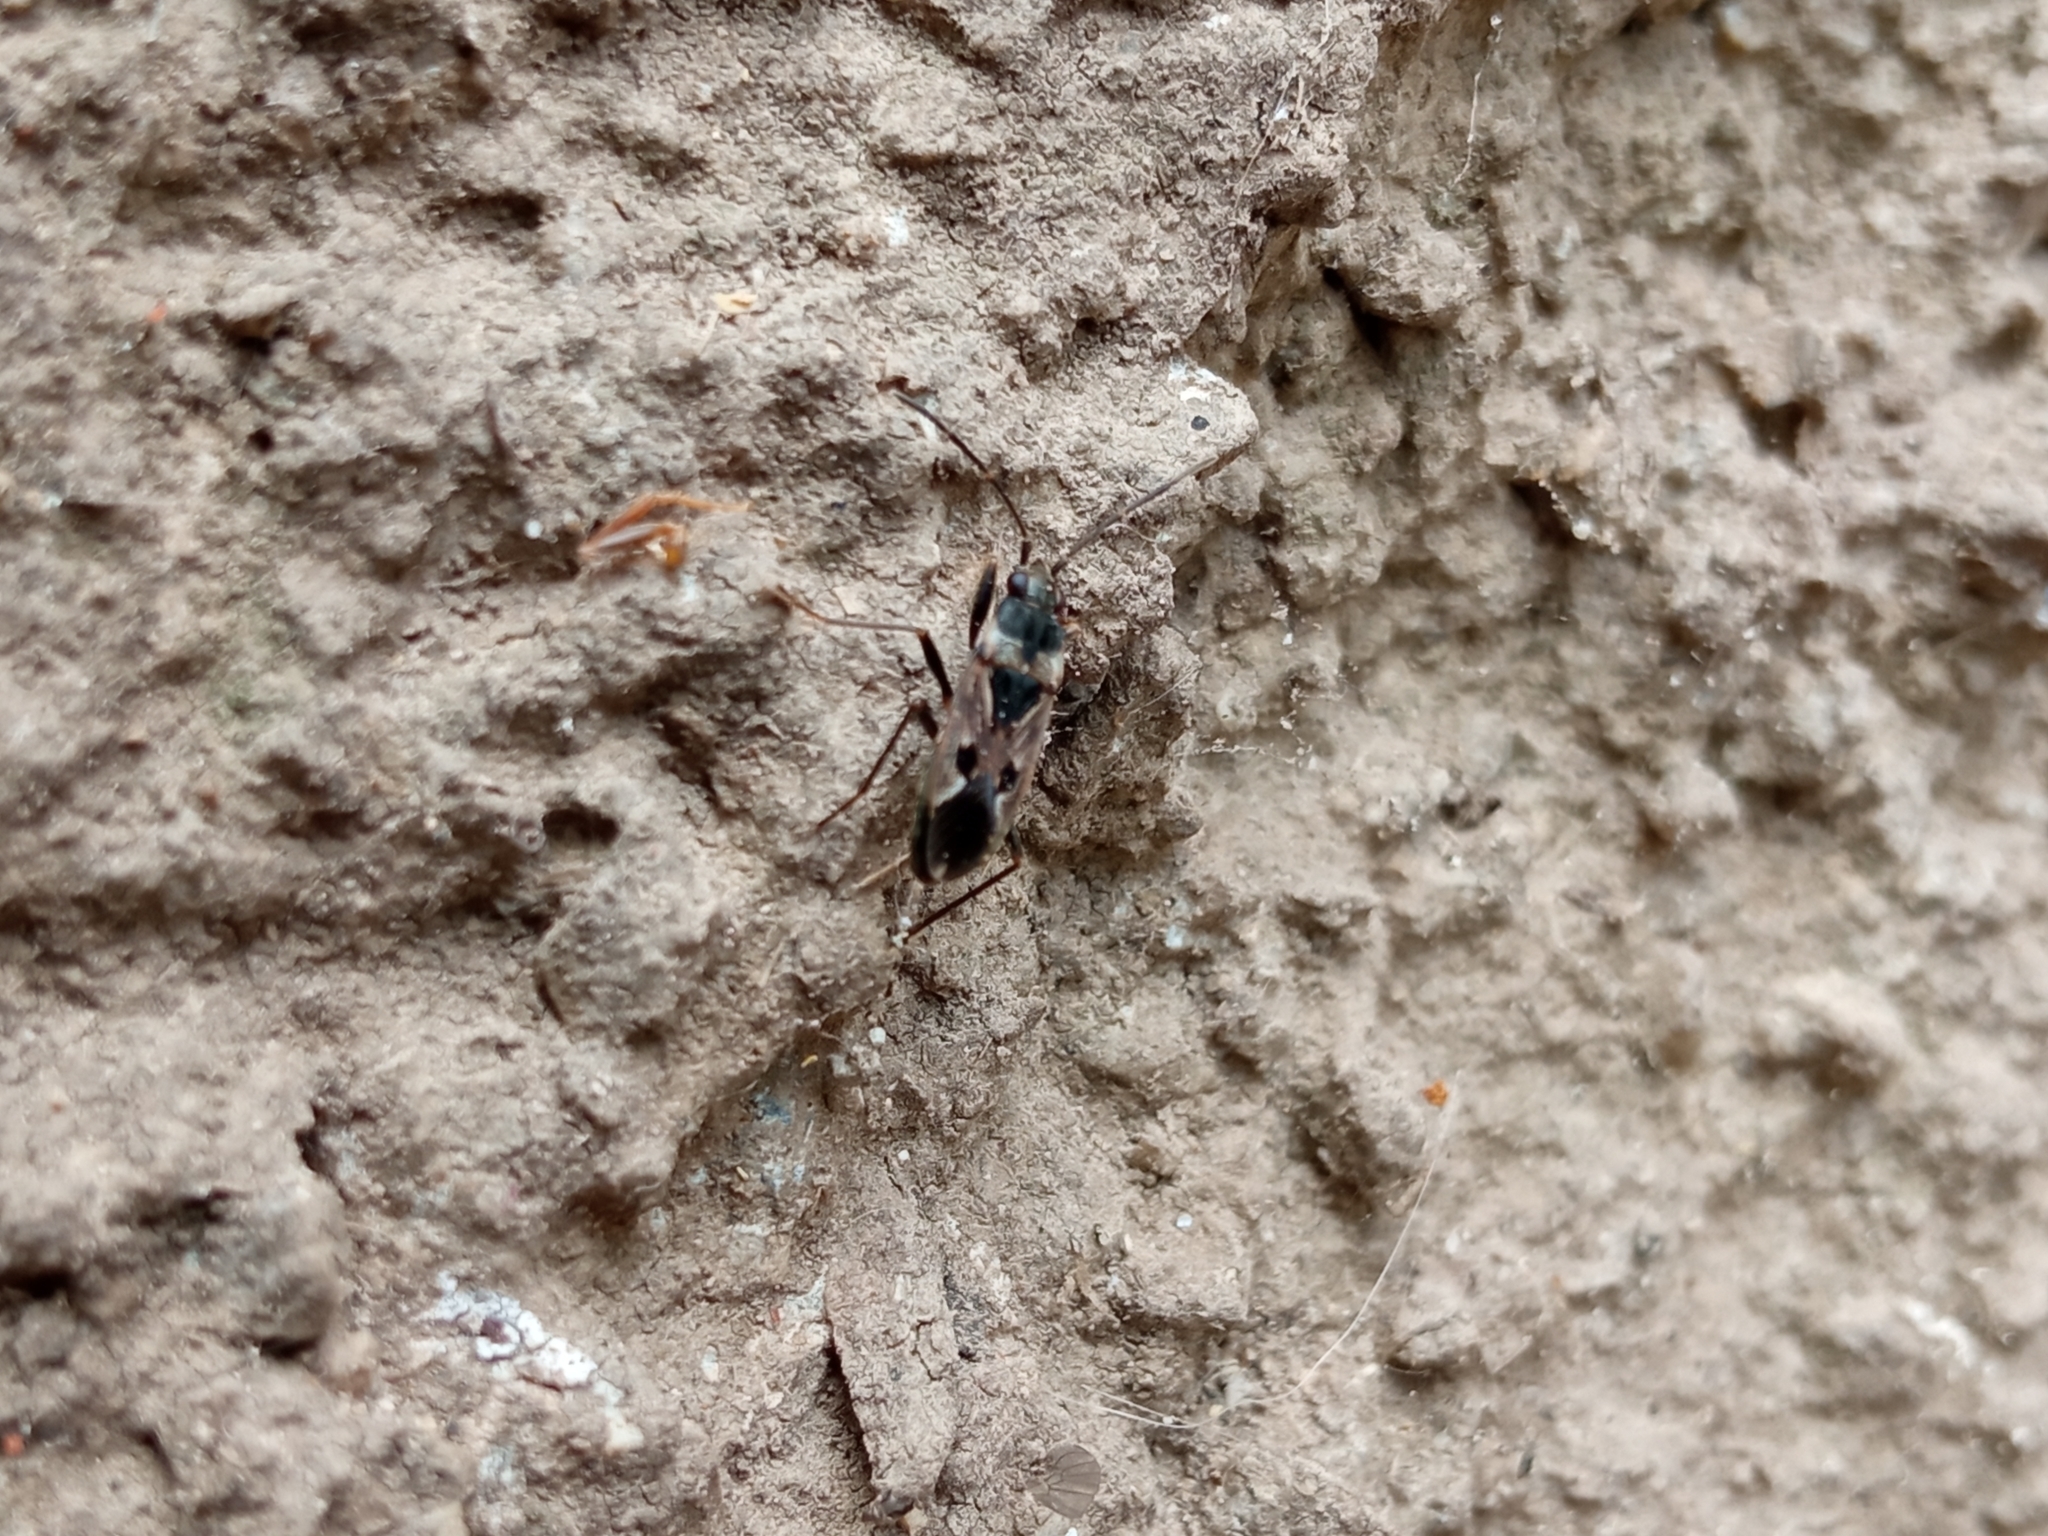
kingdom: Animalia
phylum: Arthropoda
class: Insecta
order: Hemiptera
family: Rhyparochromidae
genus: Rhyparochromus
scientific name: Rhyparochromus vulgaris
